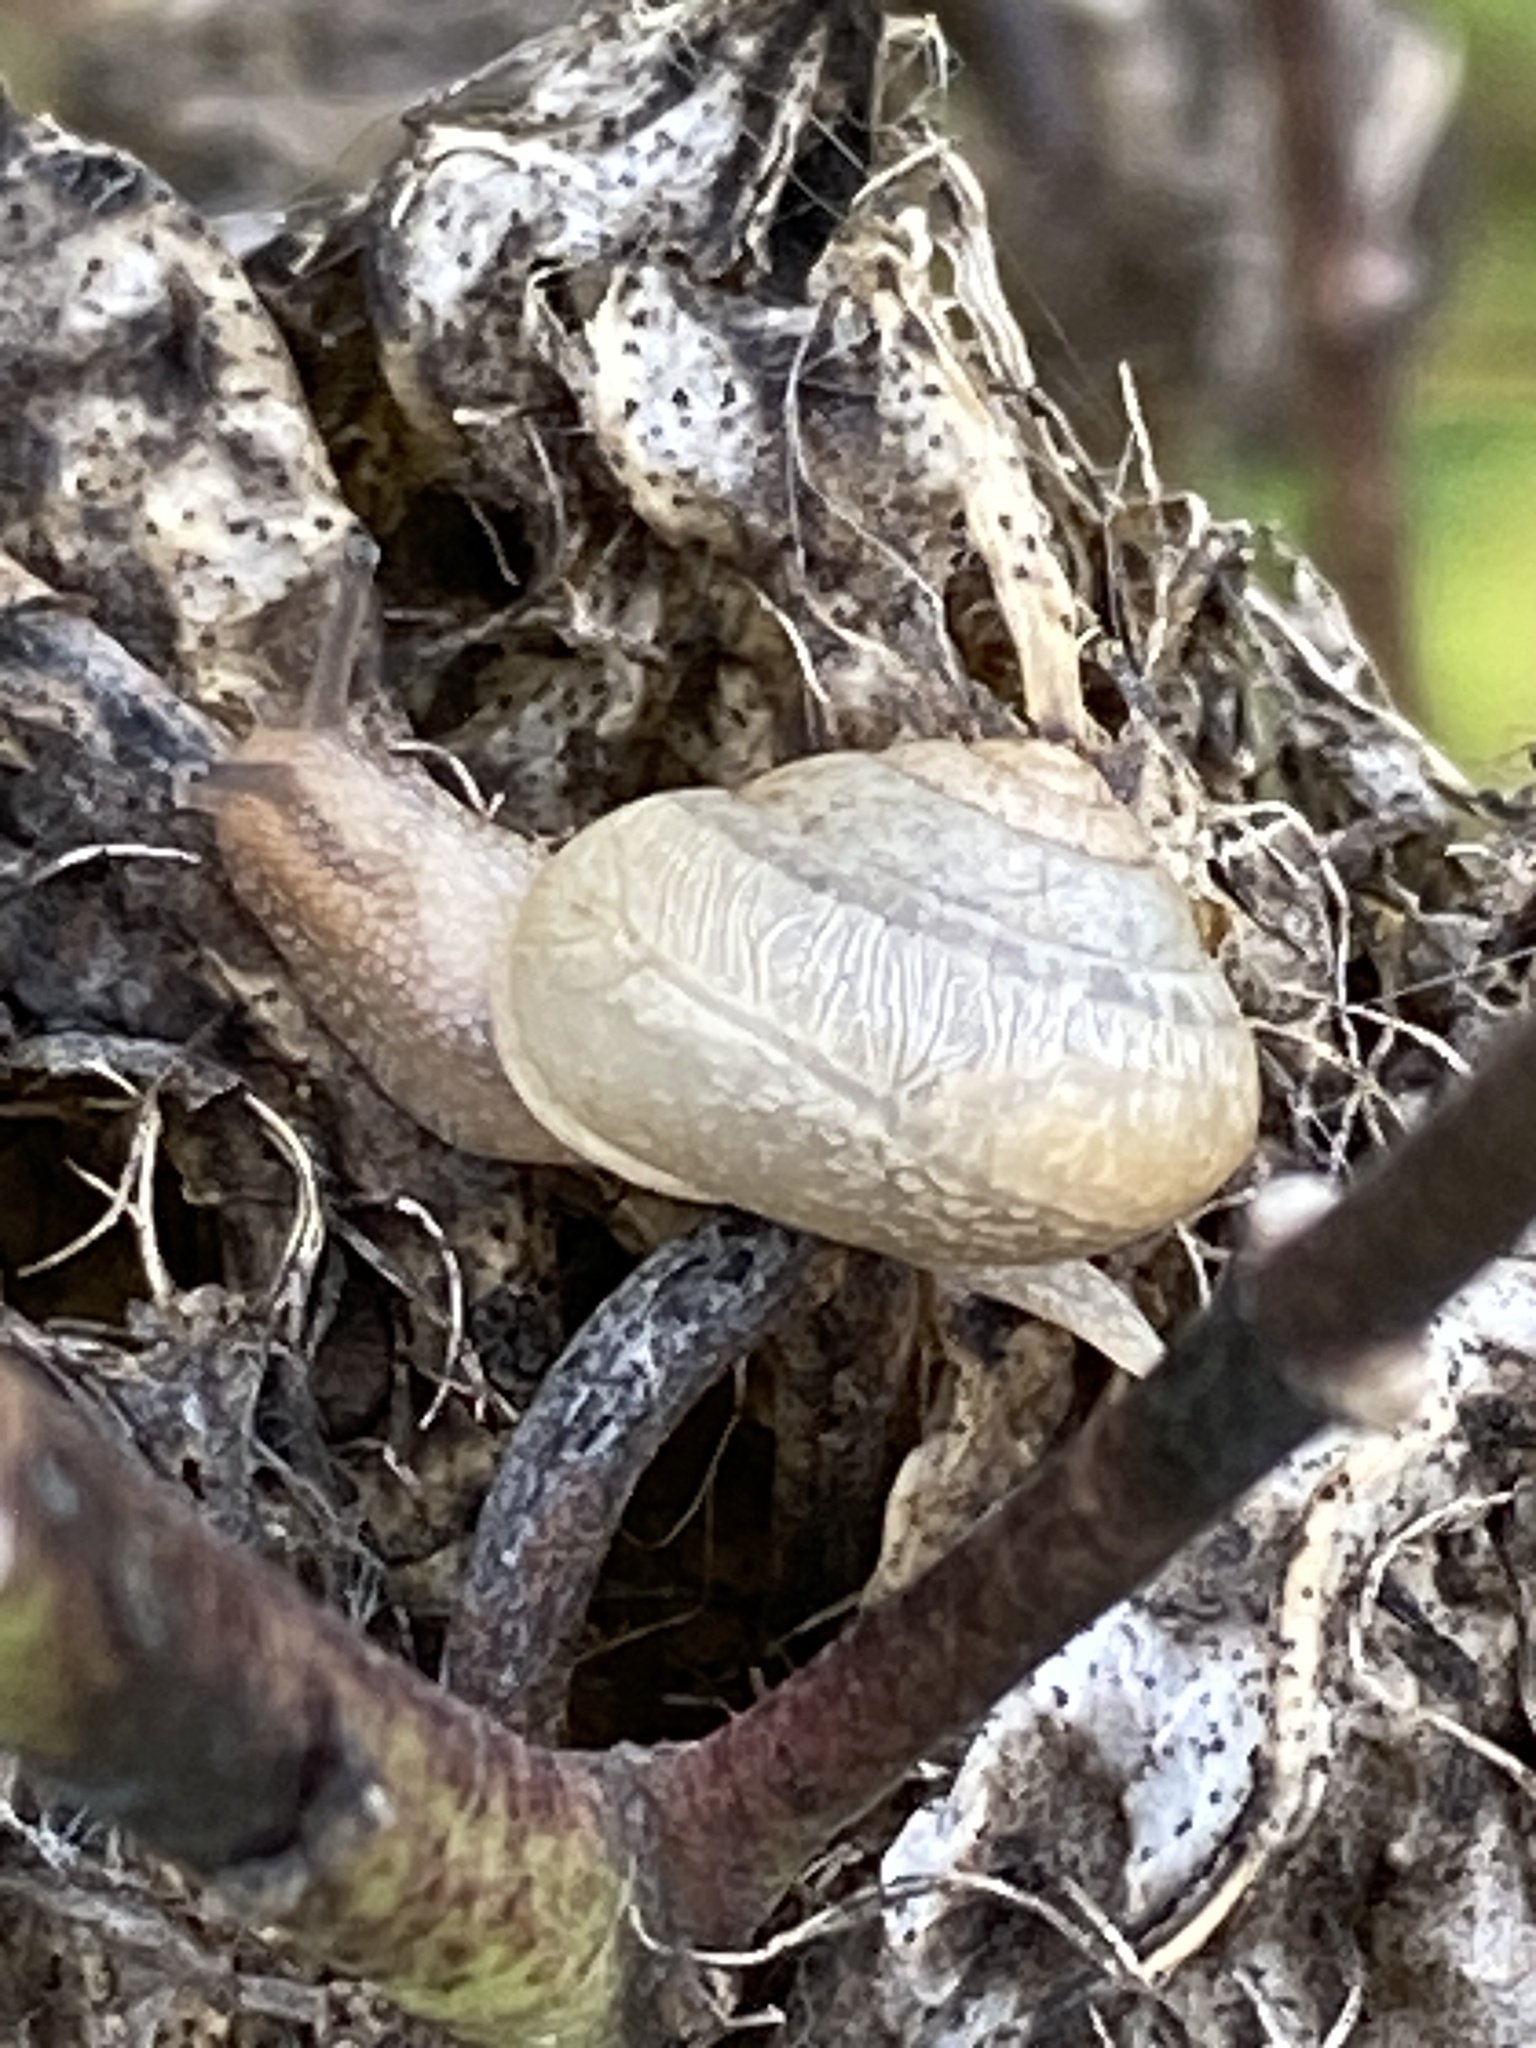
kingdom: Animalia
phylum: Mollusca
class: Gastropoda
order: Stylommatophora
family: Camaenidae
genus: Bradybaena
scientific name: Bradybaena similaris
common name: Asian trampsnail
